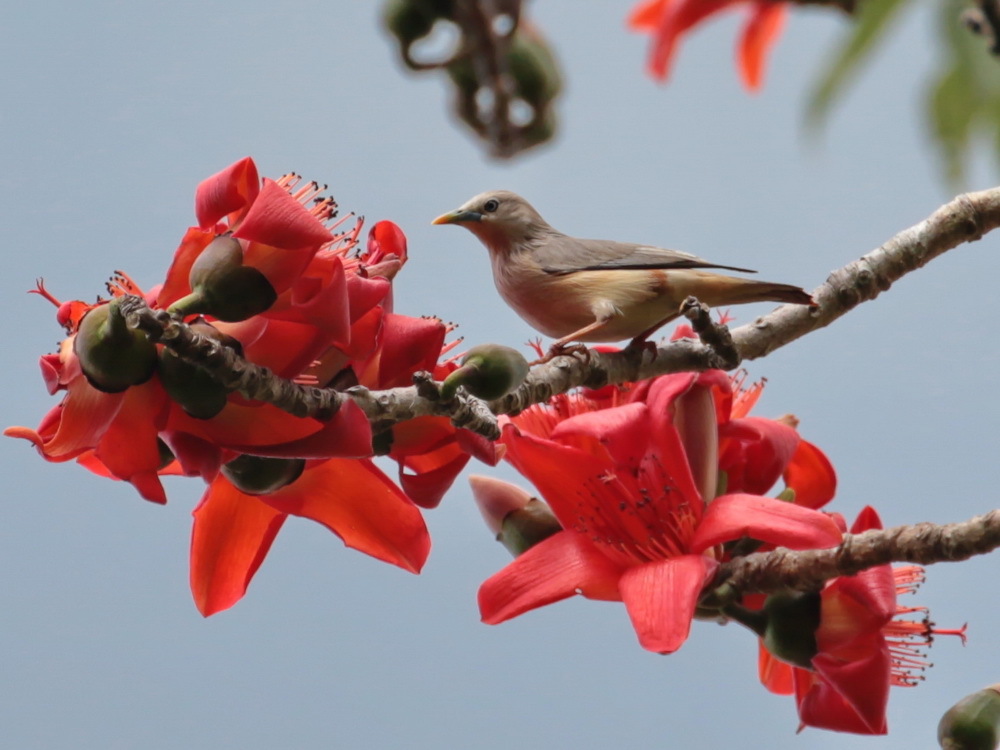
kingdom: Animalia
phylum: Chordata
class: Aves
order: Passeriformes
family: Sturnidae
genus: Sturnia
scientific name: Sturnia malabarica
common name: Chestnut-tailed starling
